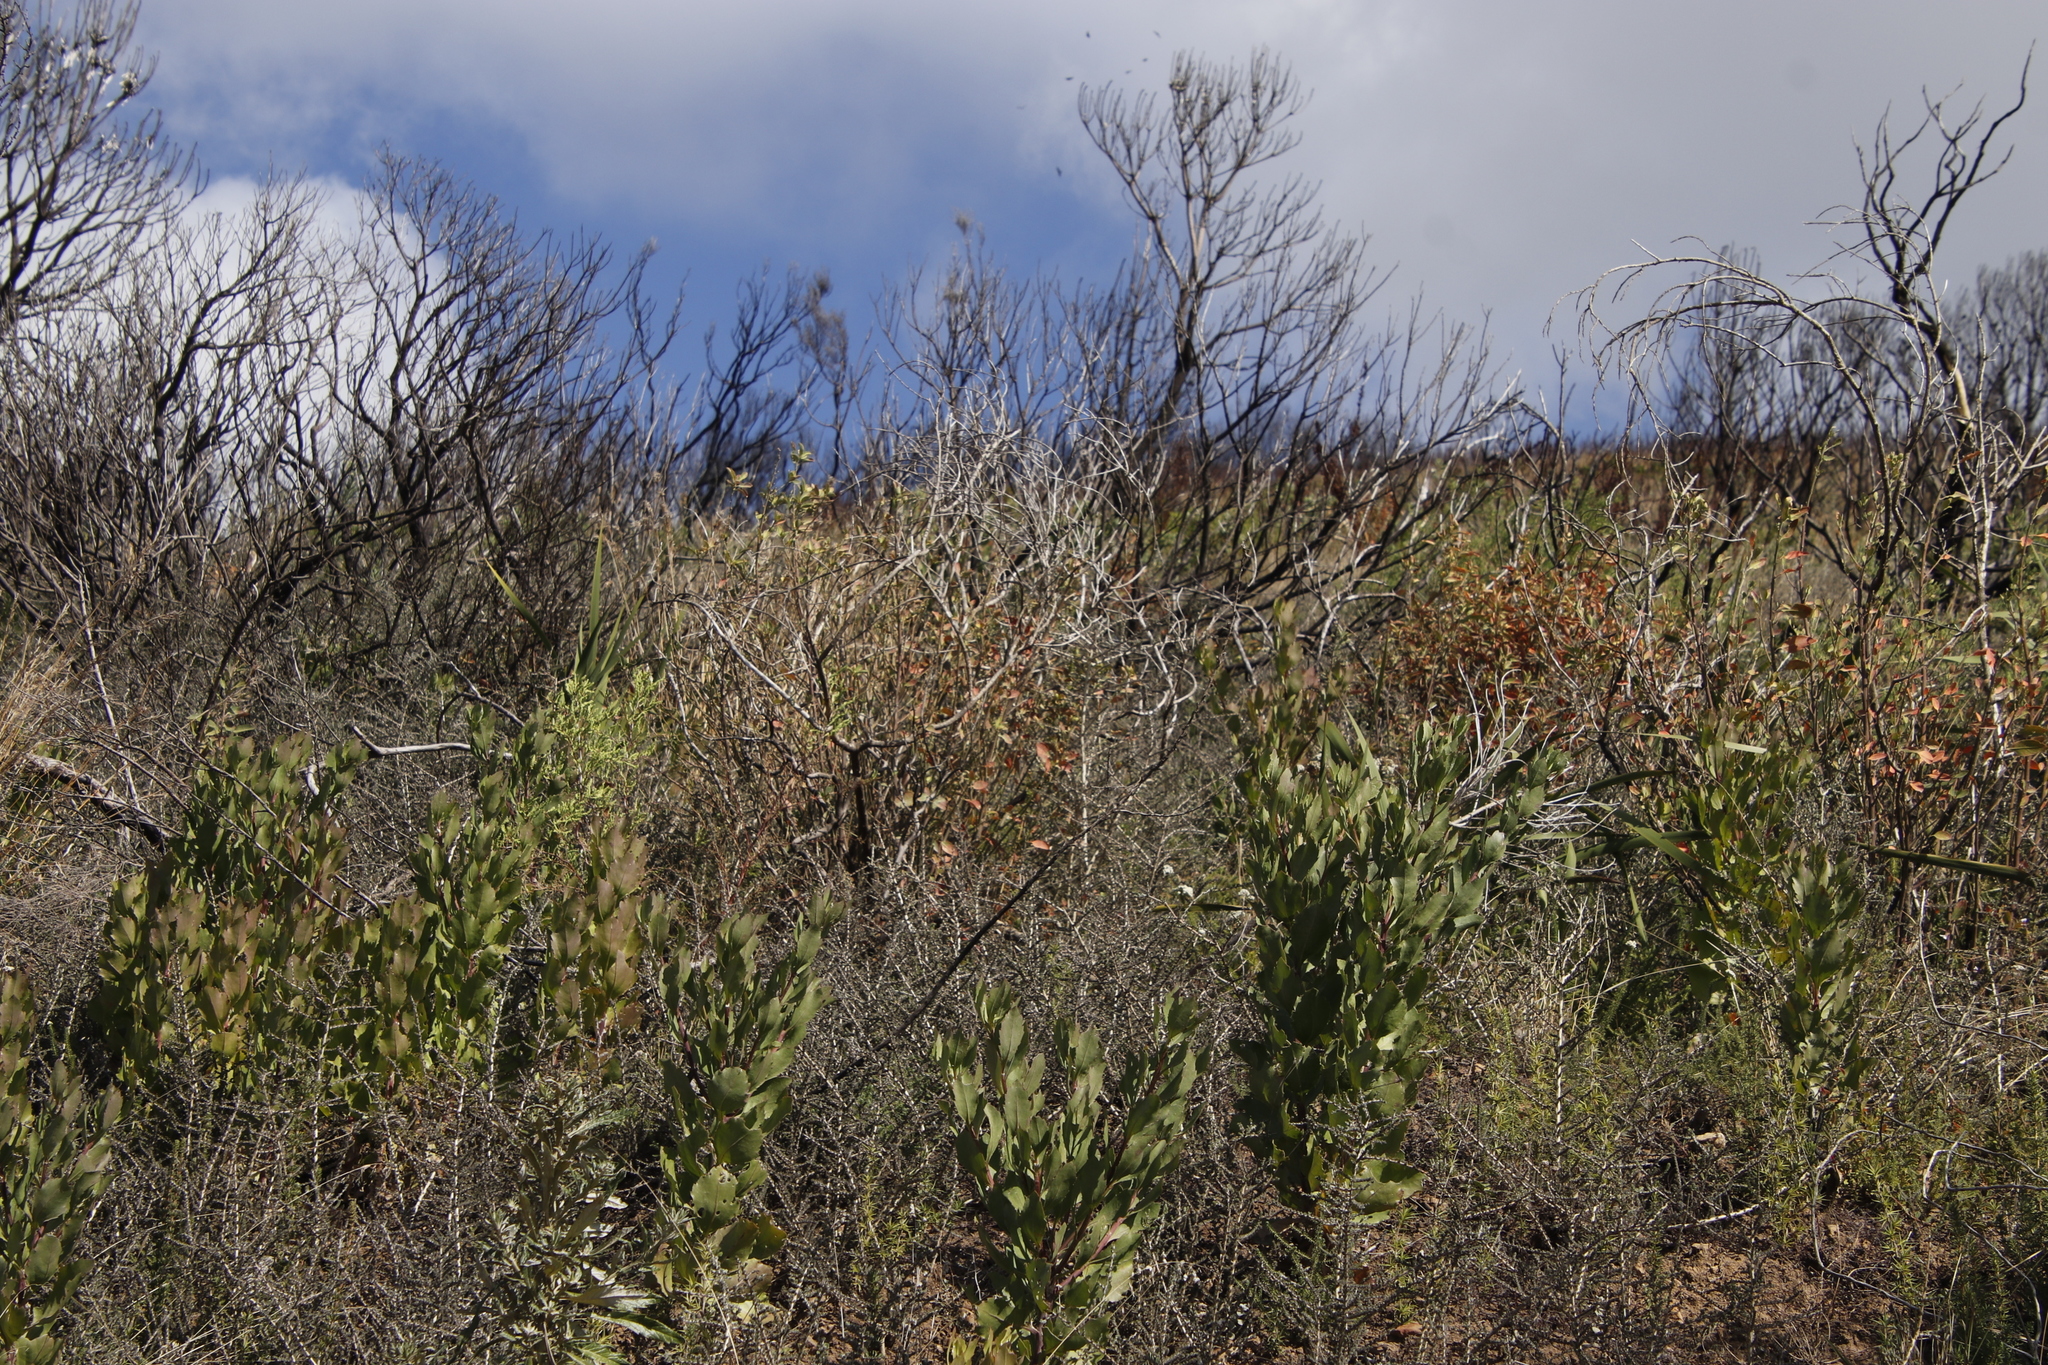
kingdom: Plantae
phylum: Tracheophyta
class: Magnoliopsida
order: Malpighiales
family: Peraceae
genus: Clutia
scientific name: Clutia pulchella
